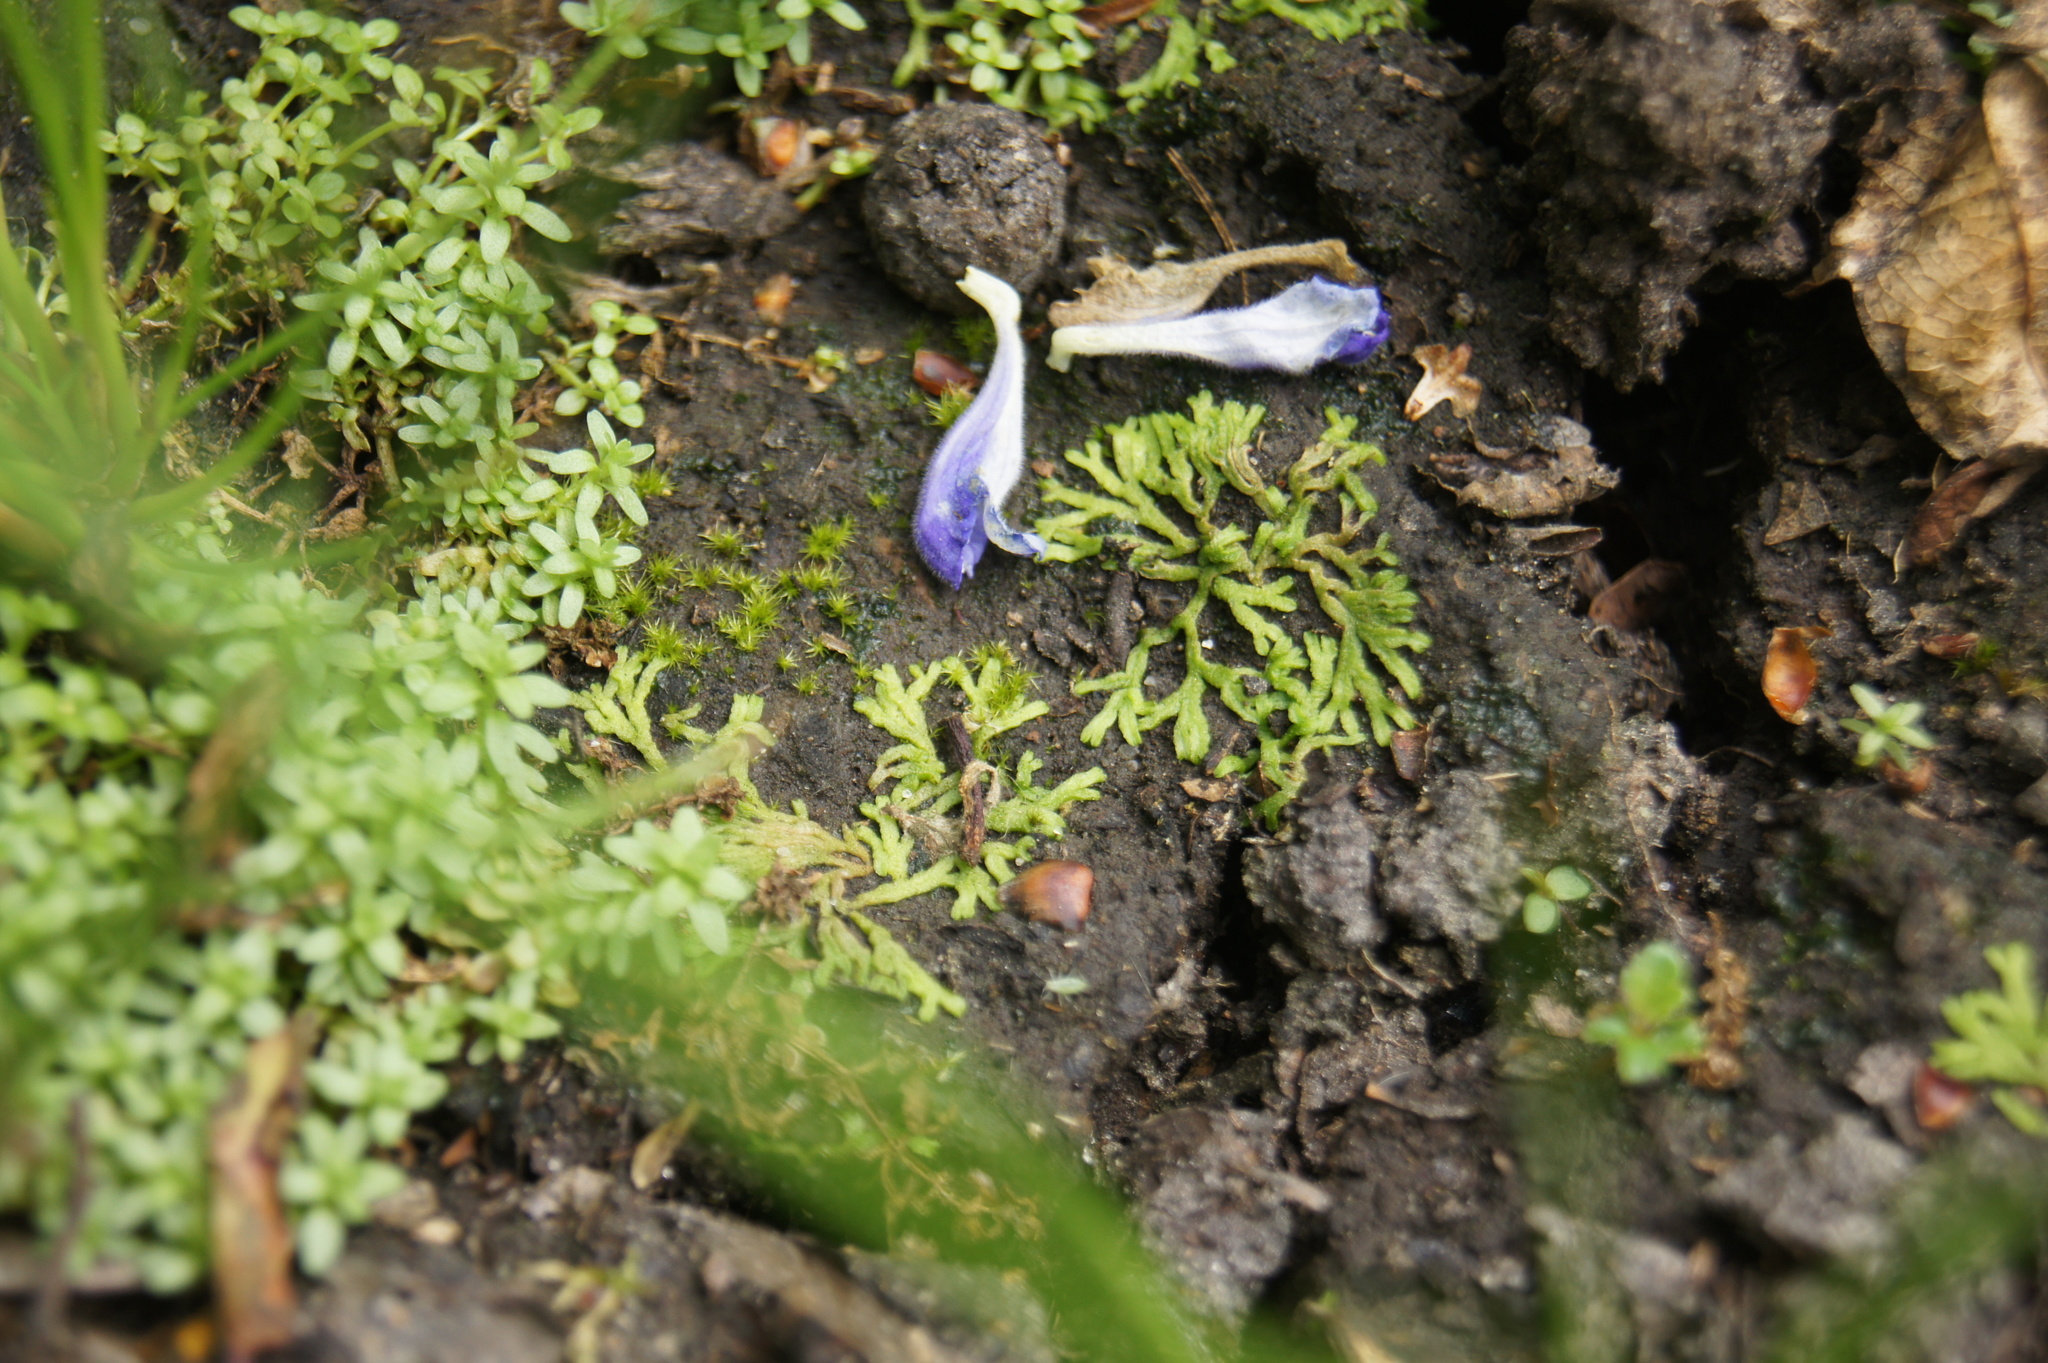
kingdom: Plantae
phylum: Marchantiophyta
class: Marchantiopsida
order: Marchantiales
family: Ricciaceae
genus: Riccia
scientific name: Riccia canaliculata
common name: Channelled crystalwort
